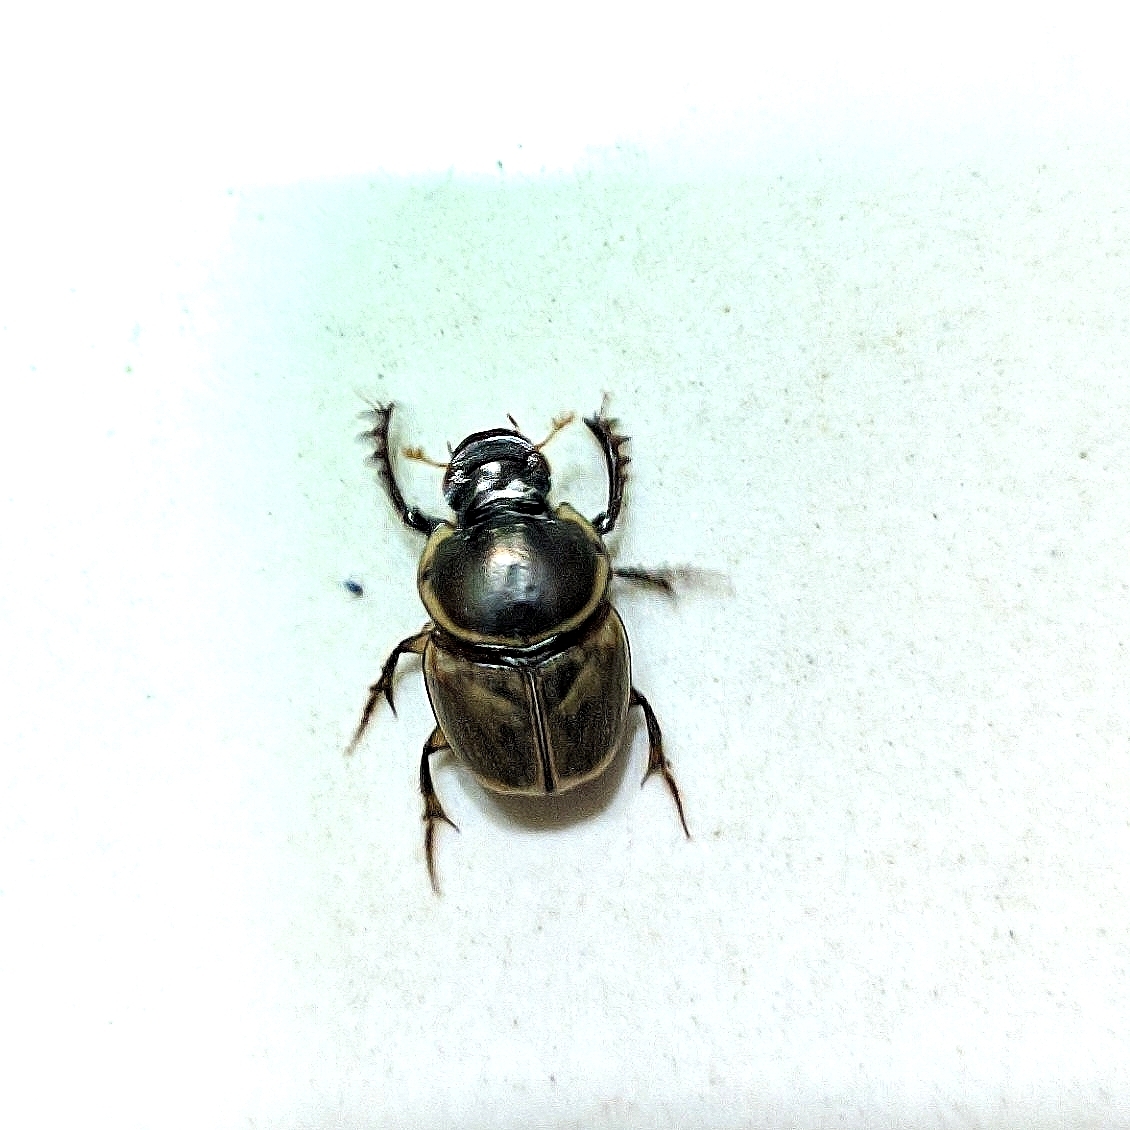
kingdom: Animalia
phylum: Arthropoda
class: Insecta
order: Coleoptera
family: Scarabaeidae
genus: Digitonthophagus
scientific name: Digitonthophagus gazella
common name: Brown dung beetle
